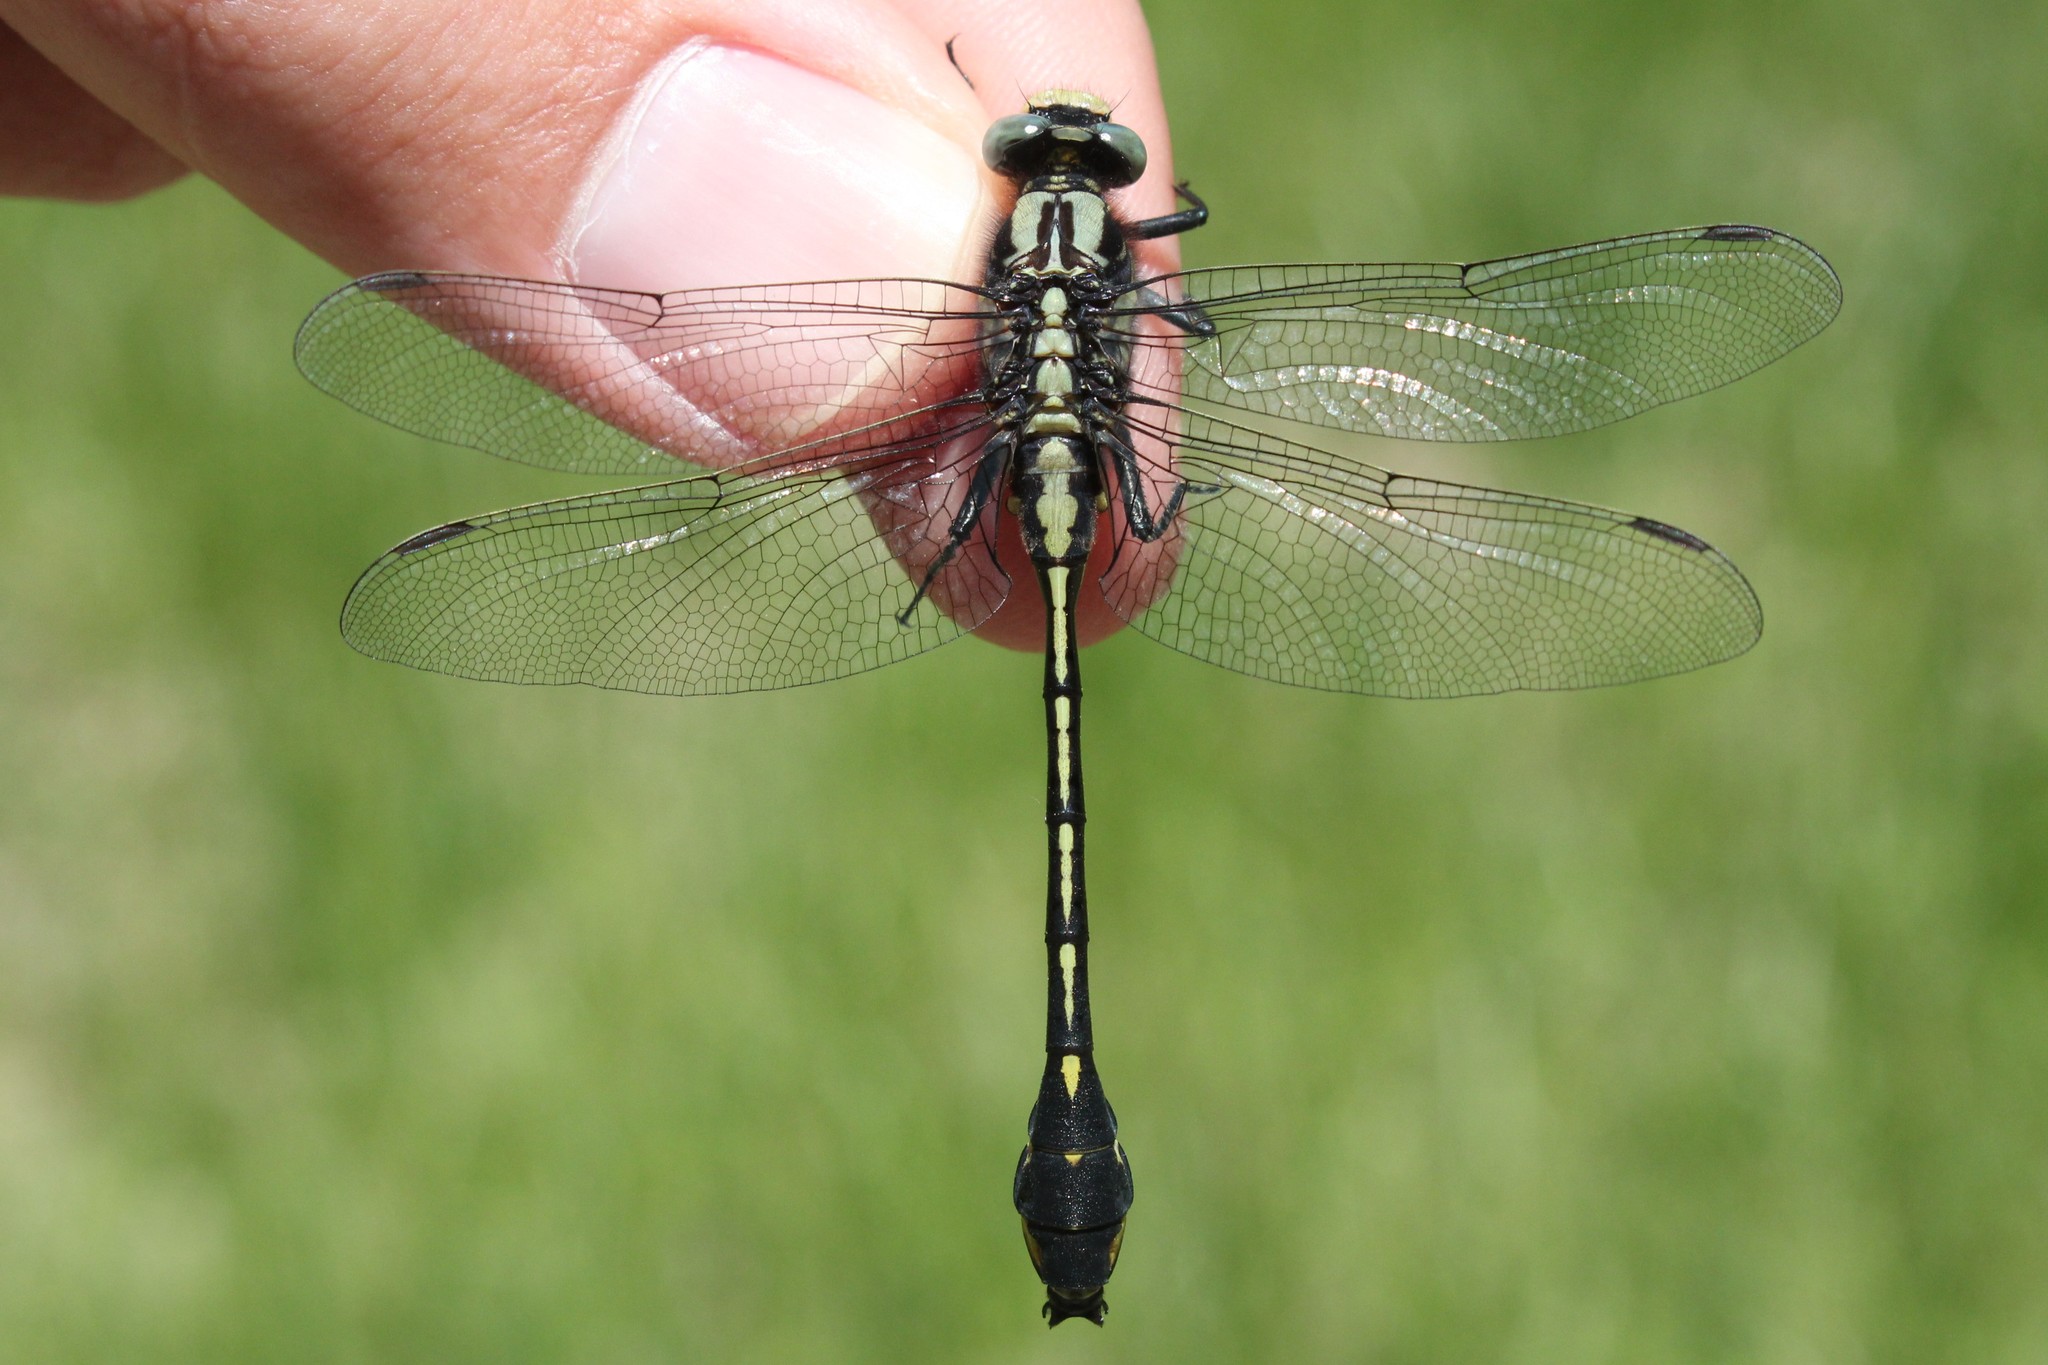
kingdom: Animalia
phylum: Arthropoda
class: Insecta
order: Odonata
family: Gomphidae
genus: Gomphurus
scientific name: Gomphurus fraternus
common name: Midland clubtail
